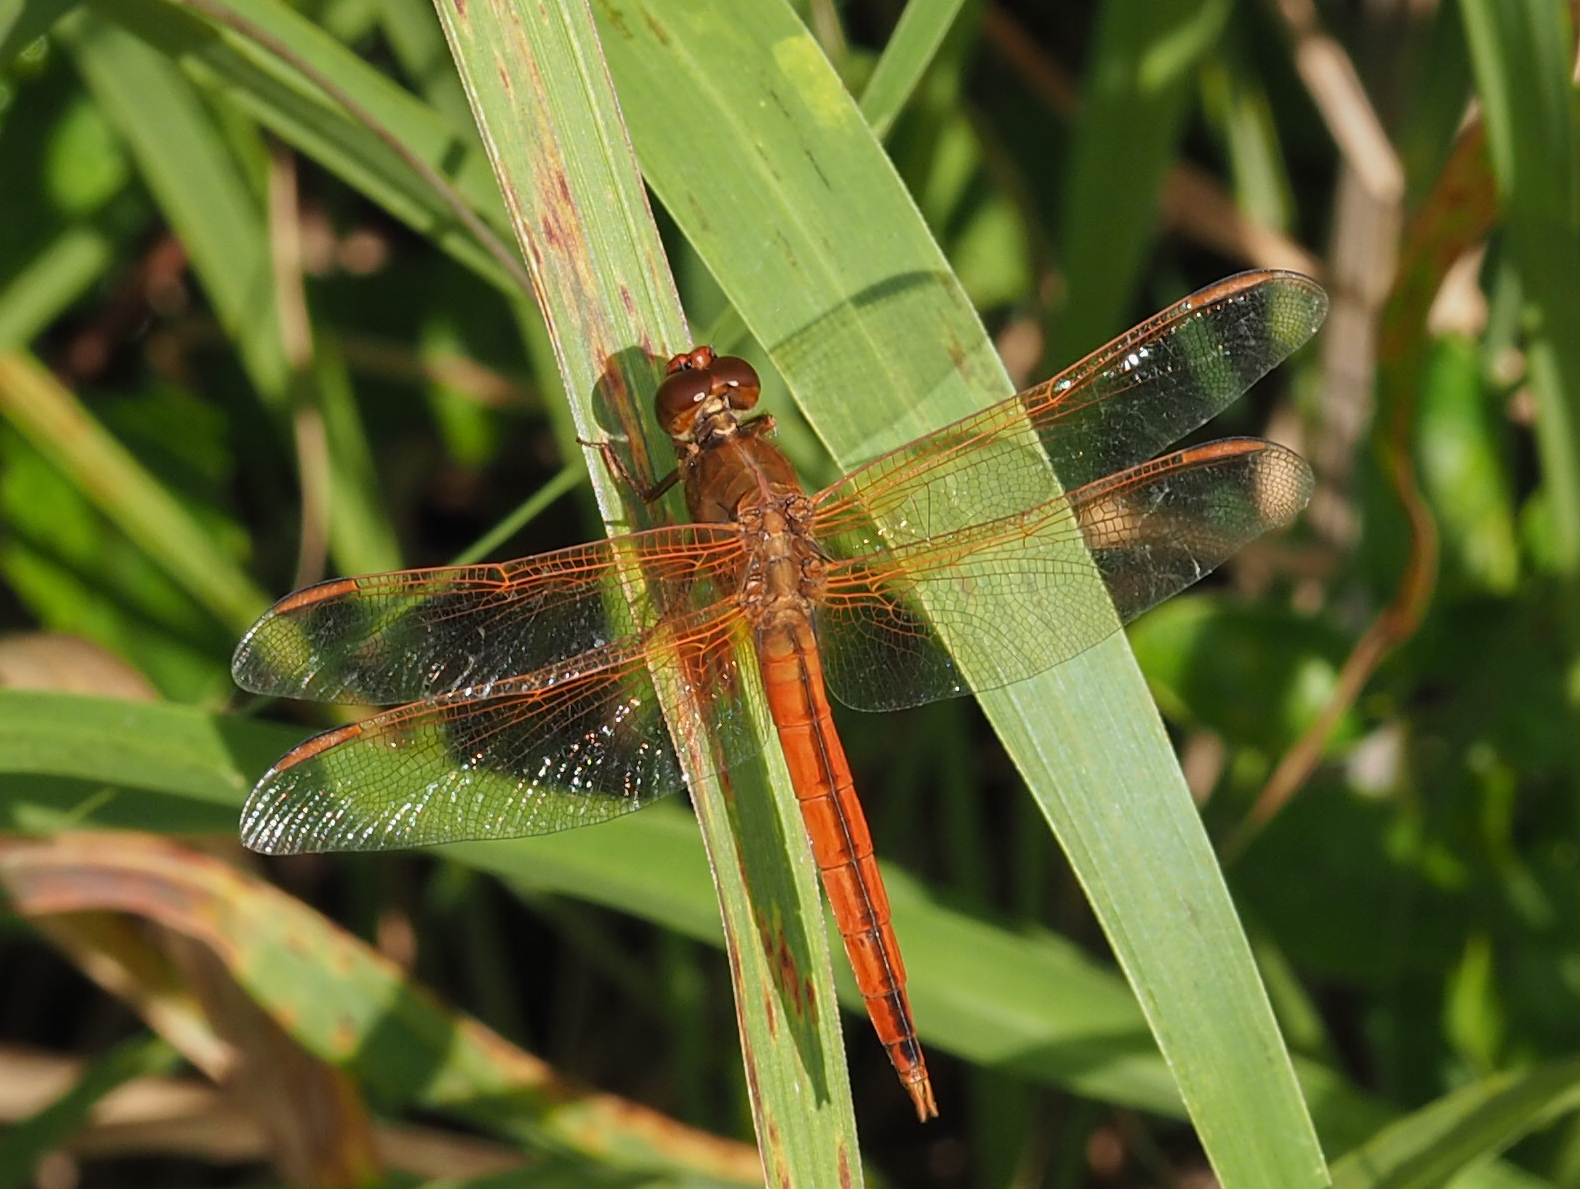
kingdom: Animalia
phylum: Arthropoda
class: Insecta
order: Odonata
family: Libellulidae
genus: Libellula
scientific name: Libellula needhami
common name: Needham's skimmer
